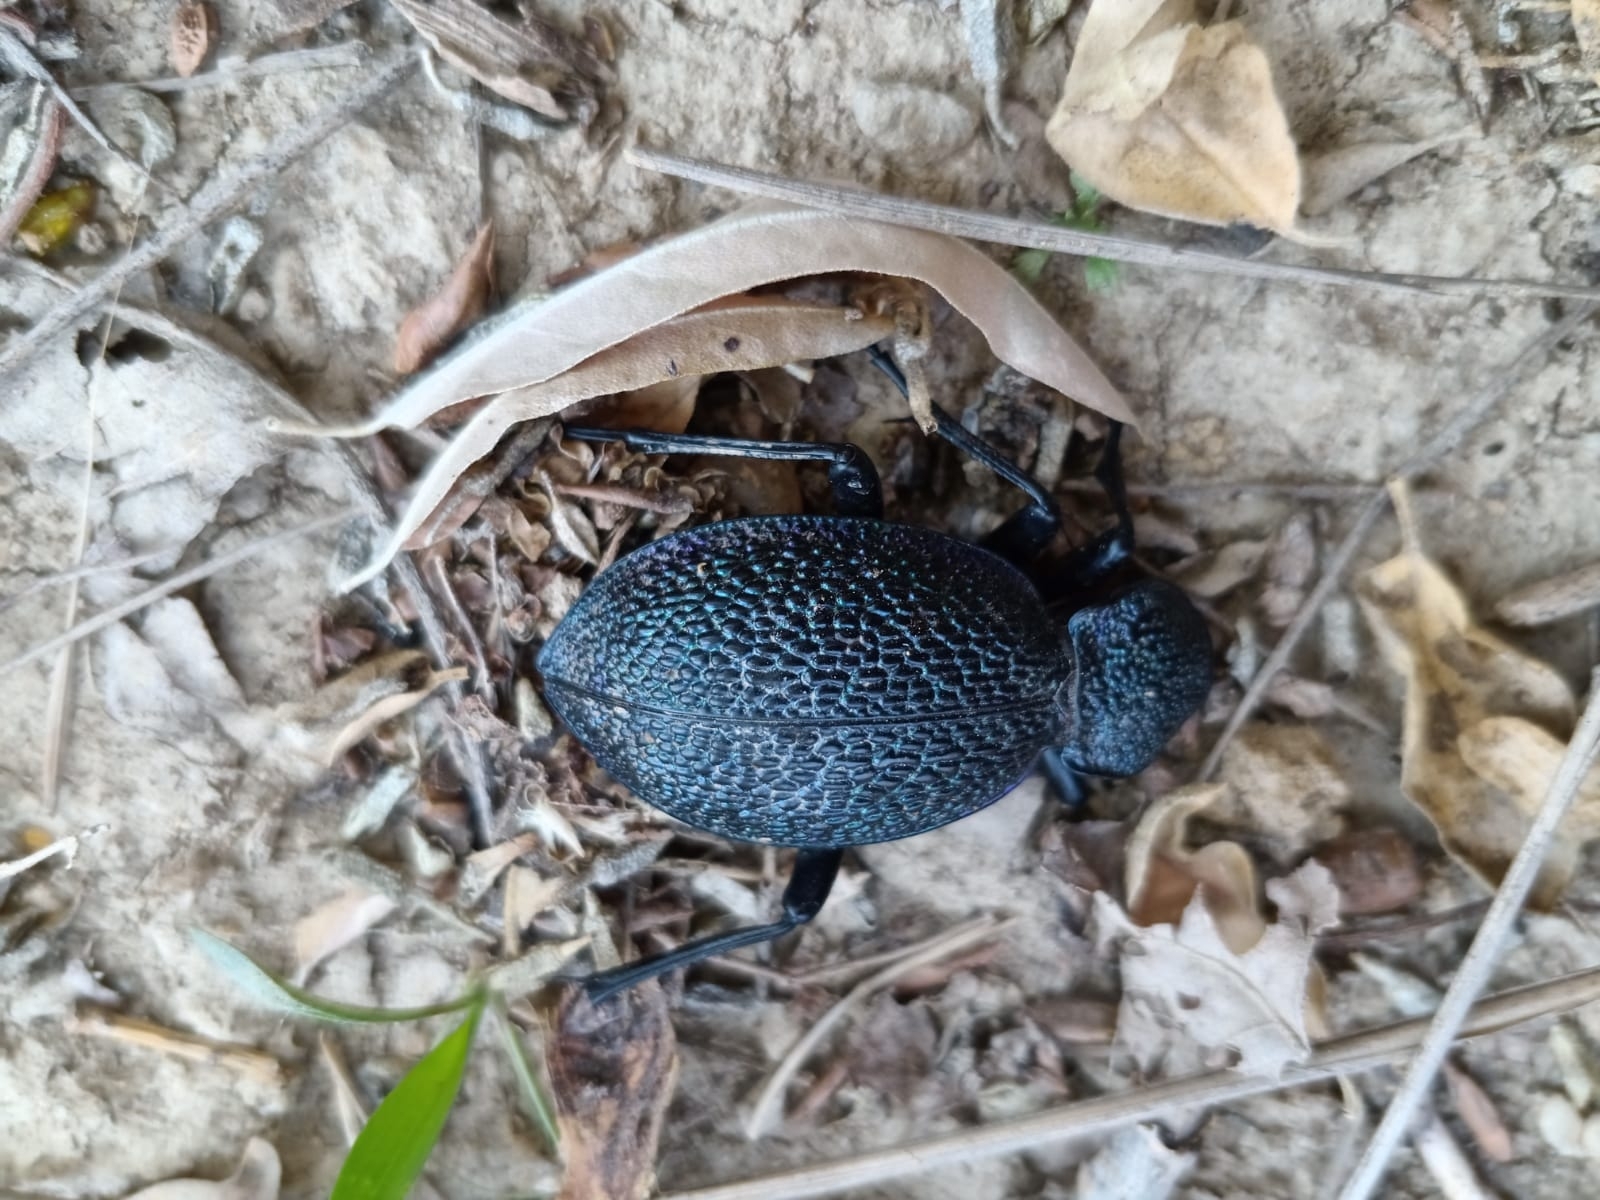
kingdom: Animalia
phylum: Arthropoda
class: Insecta
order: Coleoptera
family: Carabidae
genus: Carabus
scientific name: Carabus scabrosus
